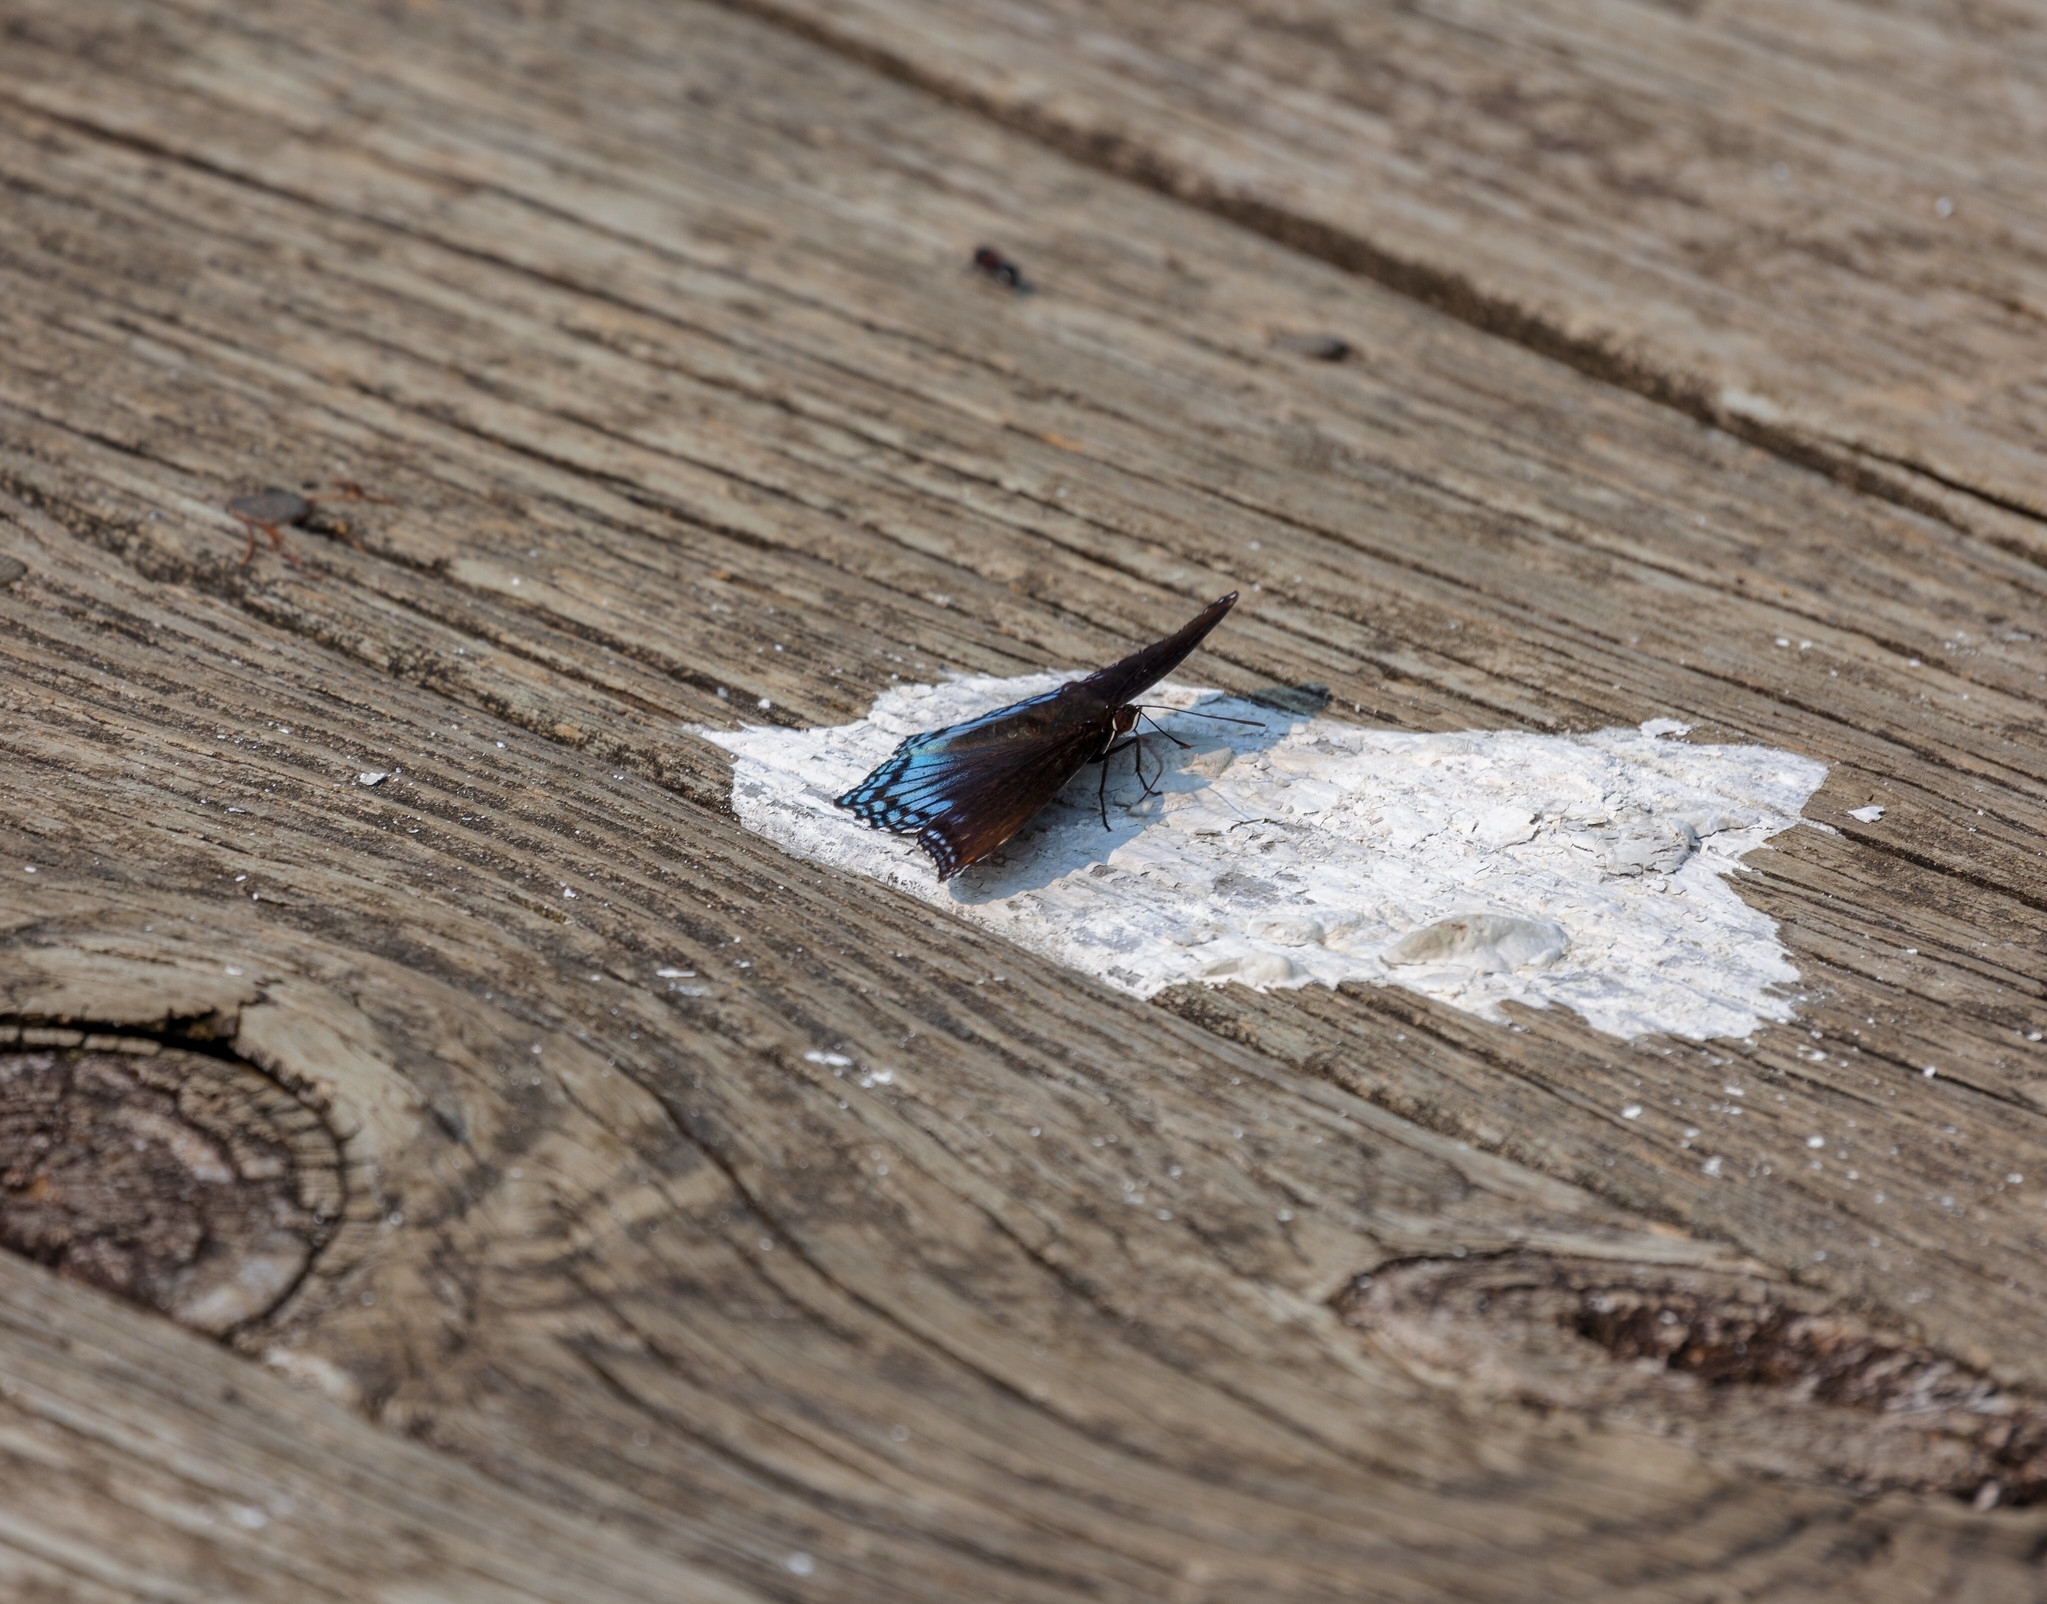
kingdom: Animalia
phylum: Arthropoda
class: Insecta
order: Lepidoptera
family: Nymphalidae
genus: Limenitis
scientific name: Limenitis astyanax
